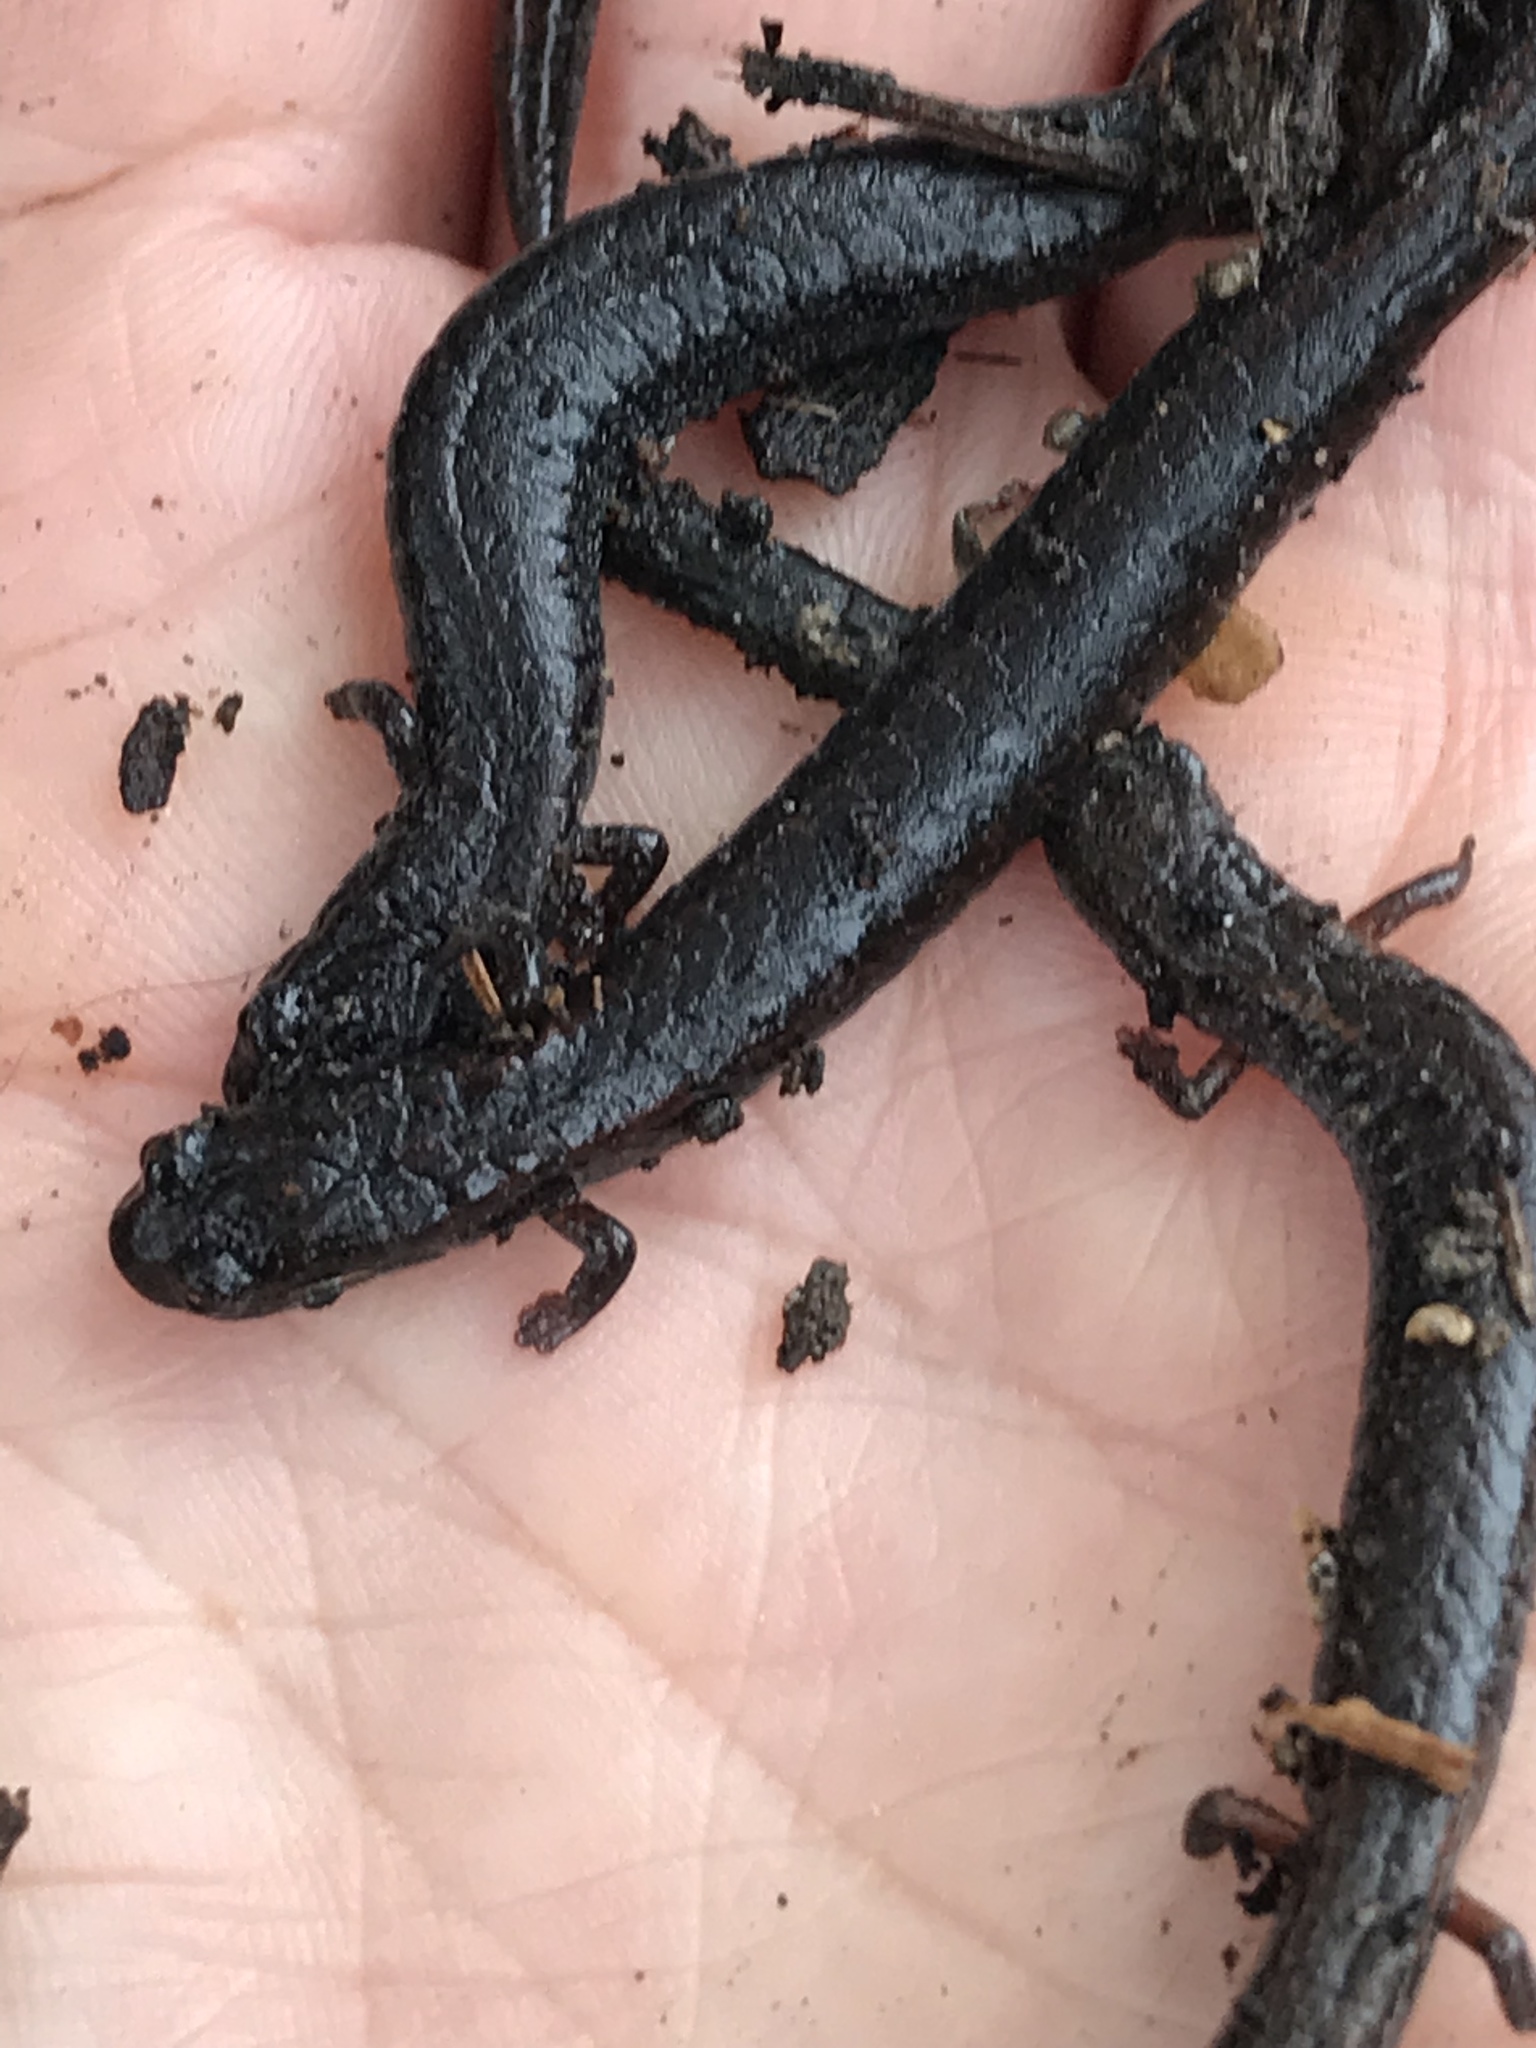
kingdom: Animalia
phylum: Chordata
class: Amphibia
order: Caudata
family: Plethodontidae
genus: Batrachoseps
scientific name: Batrachoseps attenuatus
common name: California slender salamander
